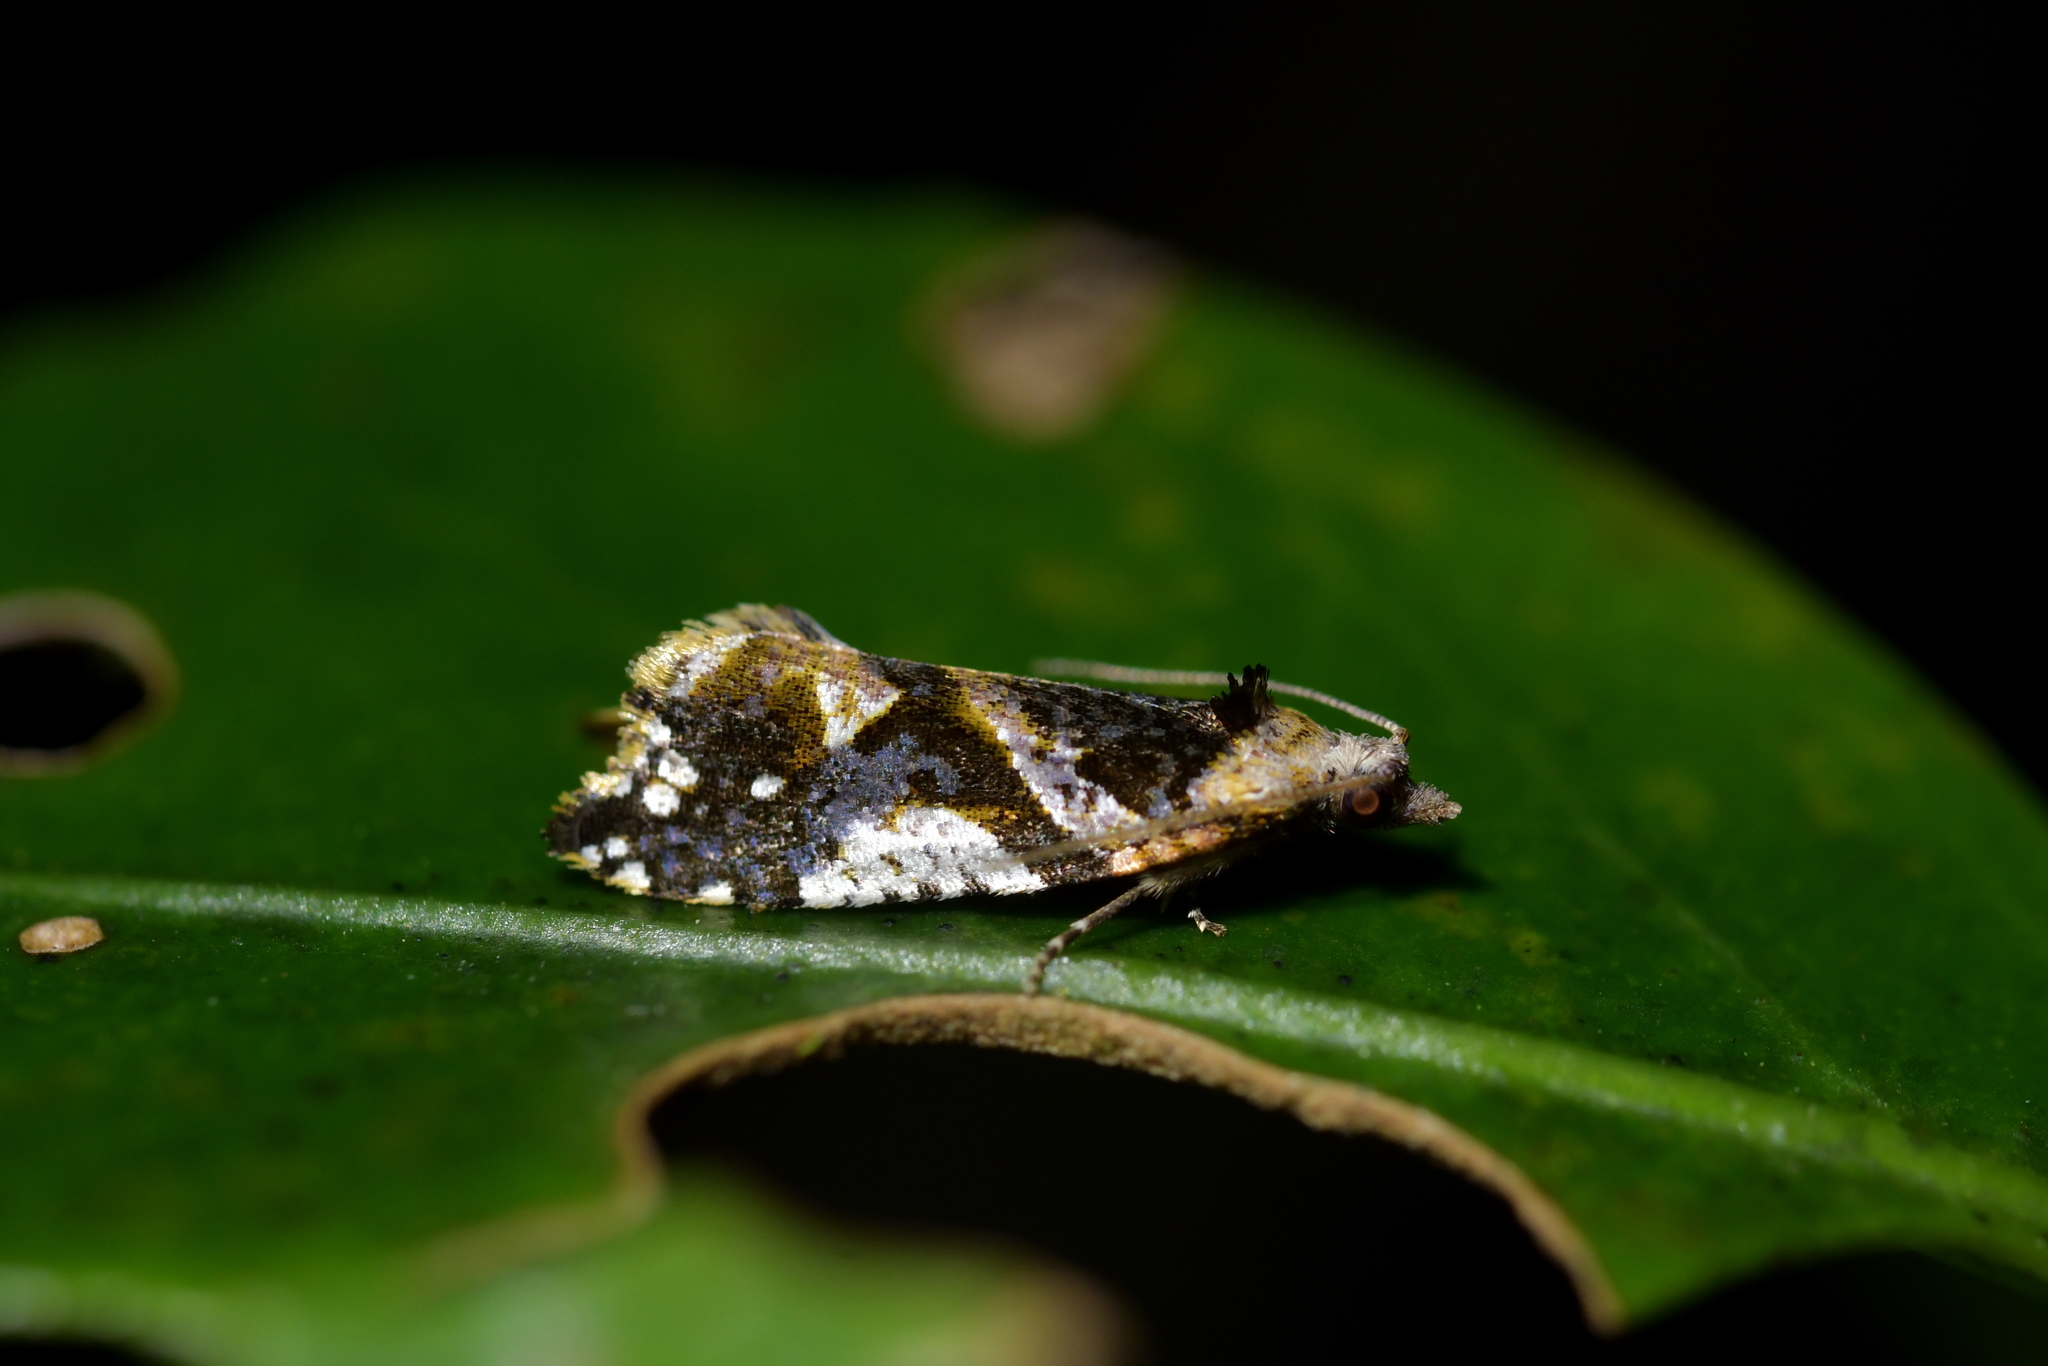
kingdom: Animalia
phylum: Arthropoda
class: Insecta
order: Lepidoptera
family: Tortricidae
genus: Pyrgotis
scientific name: Pyrgotis plagiatana
